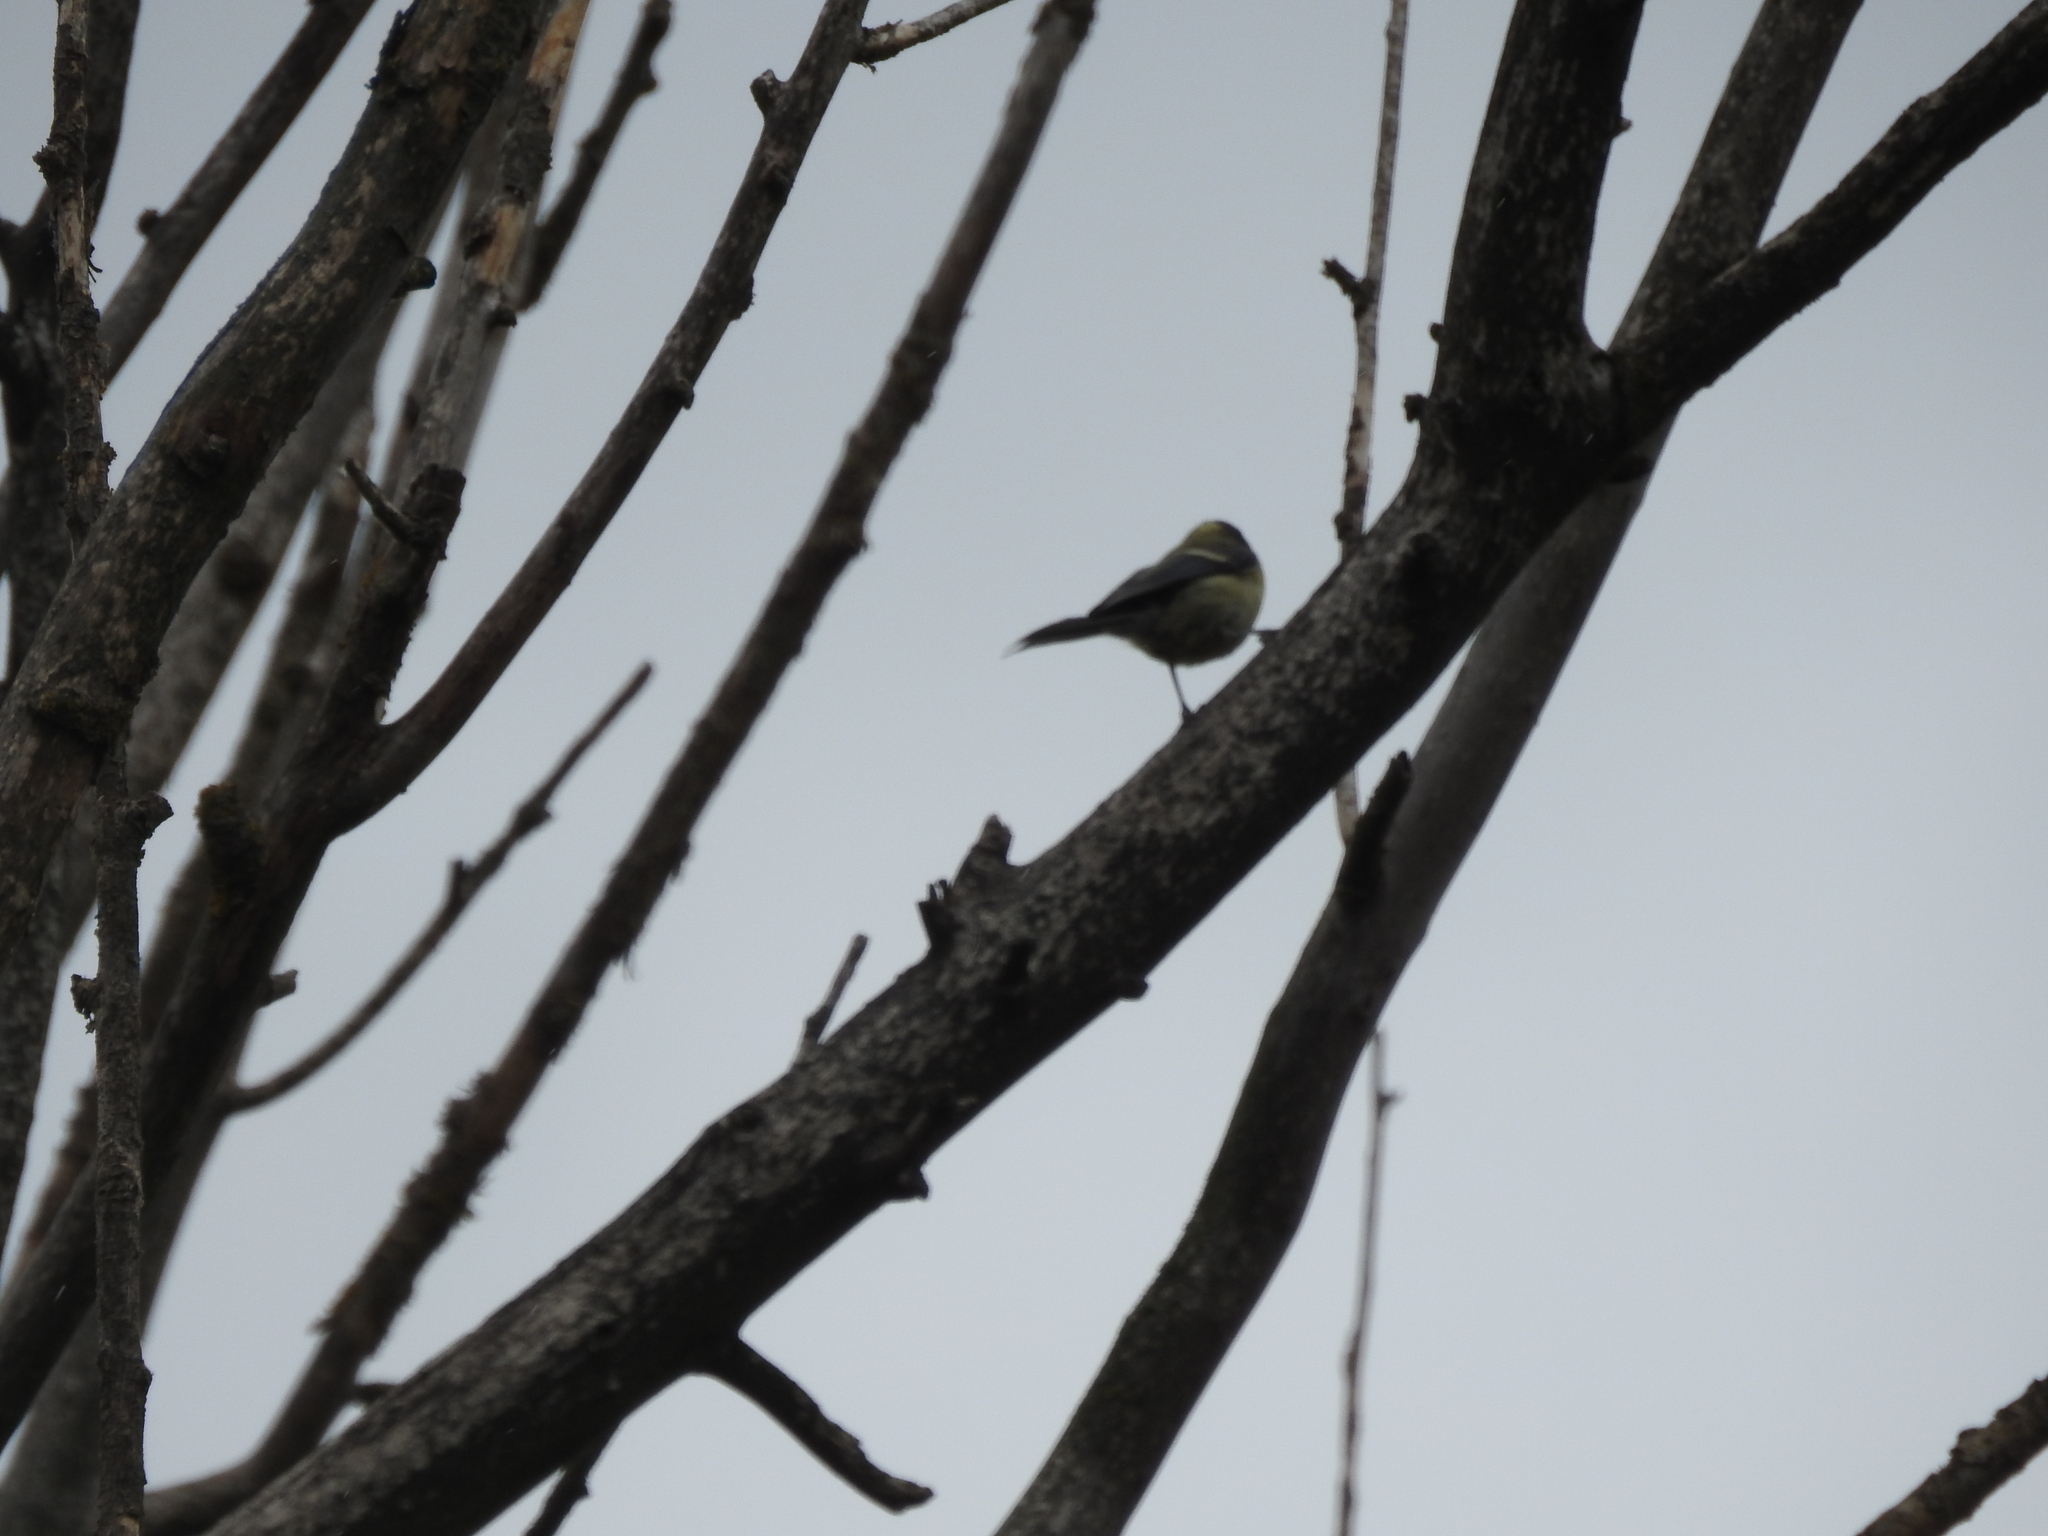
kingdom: Animalia
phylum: Chordata
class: Aves
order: Passeriformes
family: Paridae
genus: Parus
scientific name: Parus major
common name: Great tit
